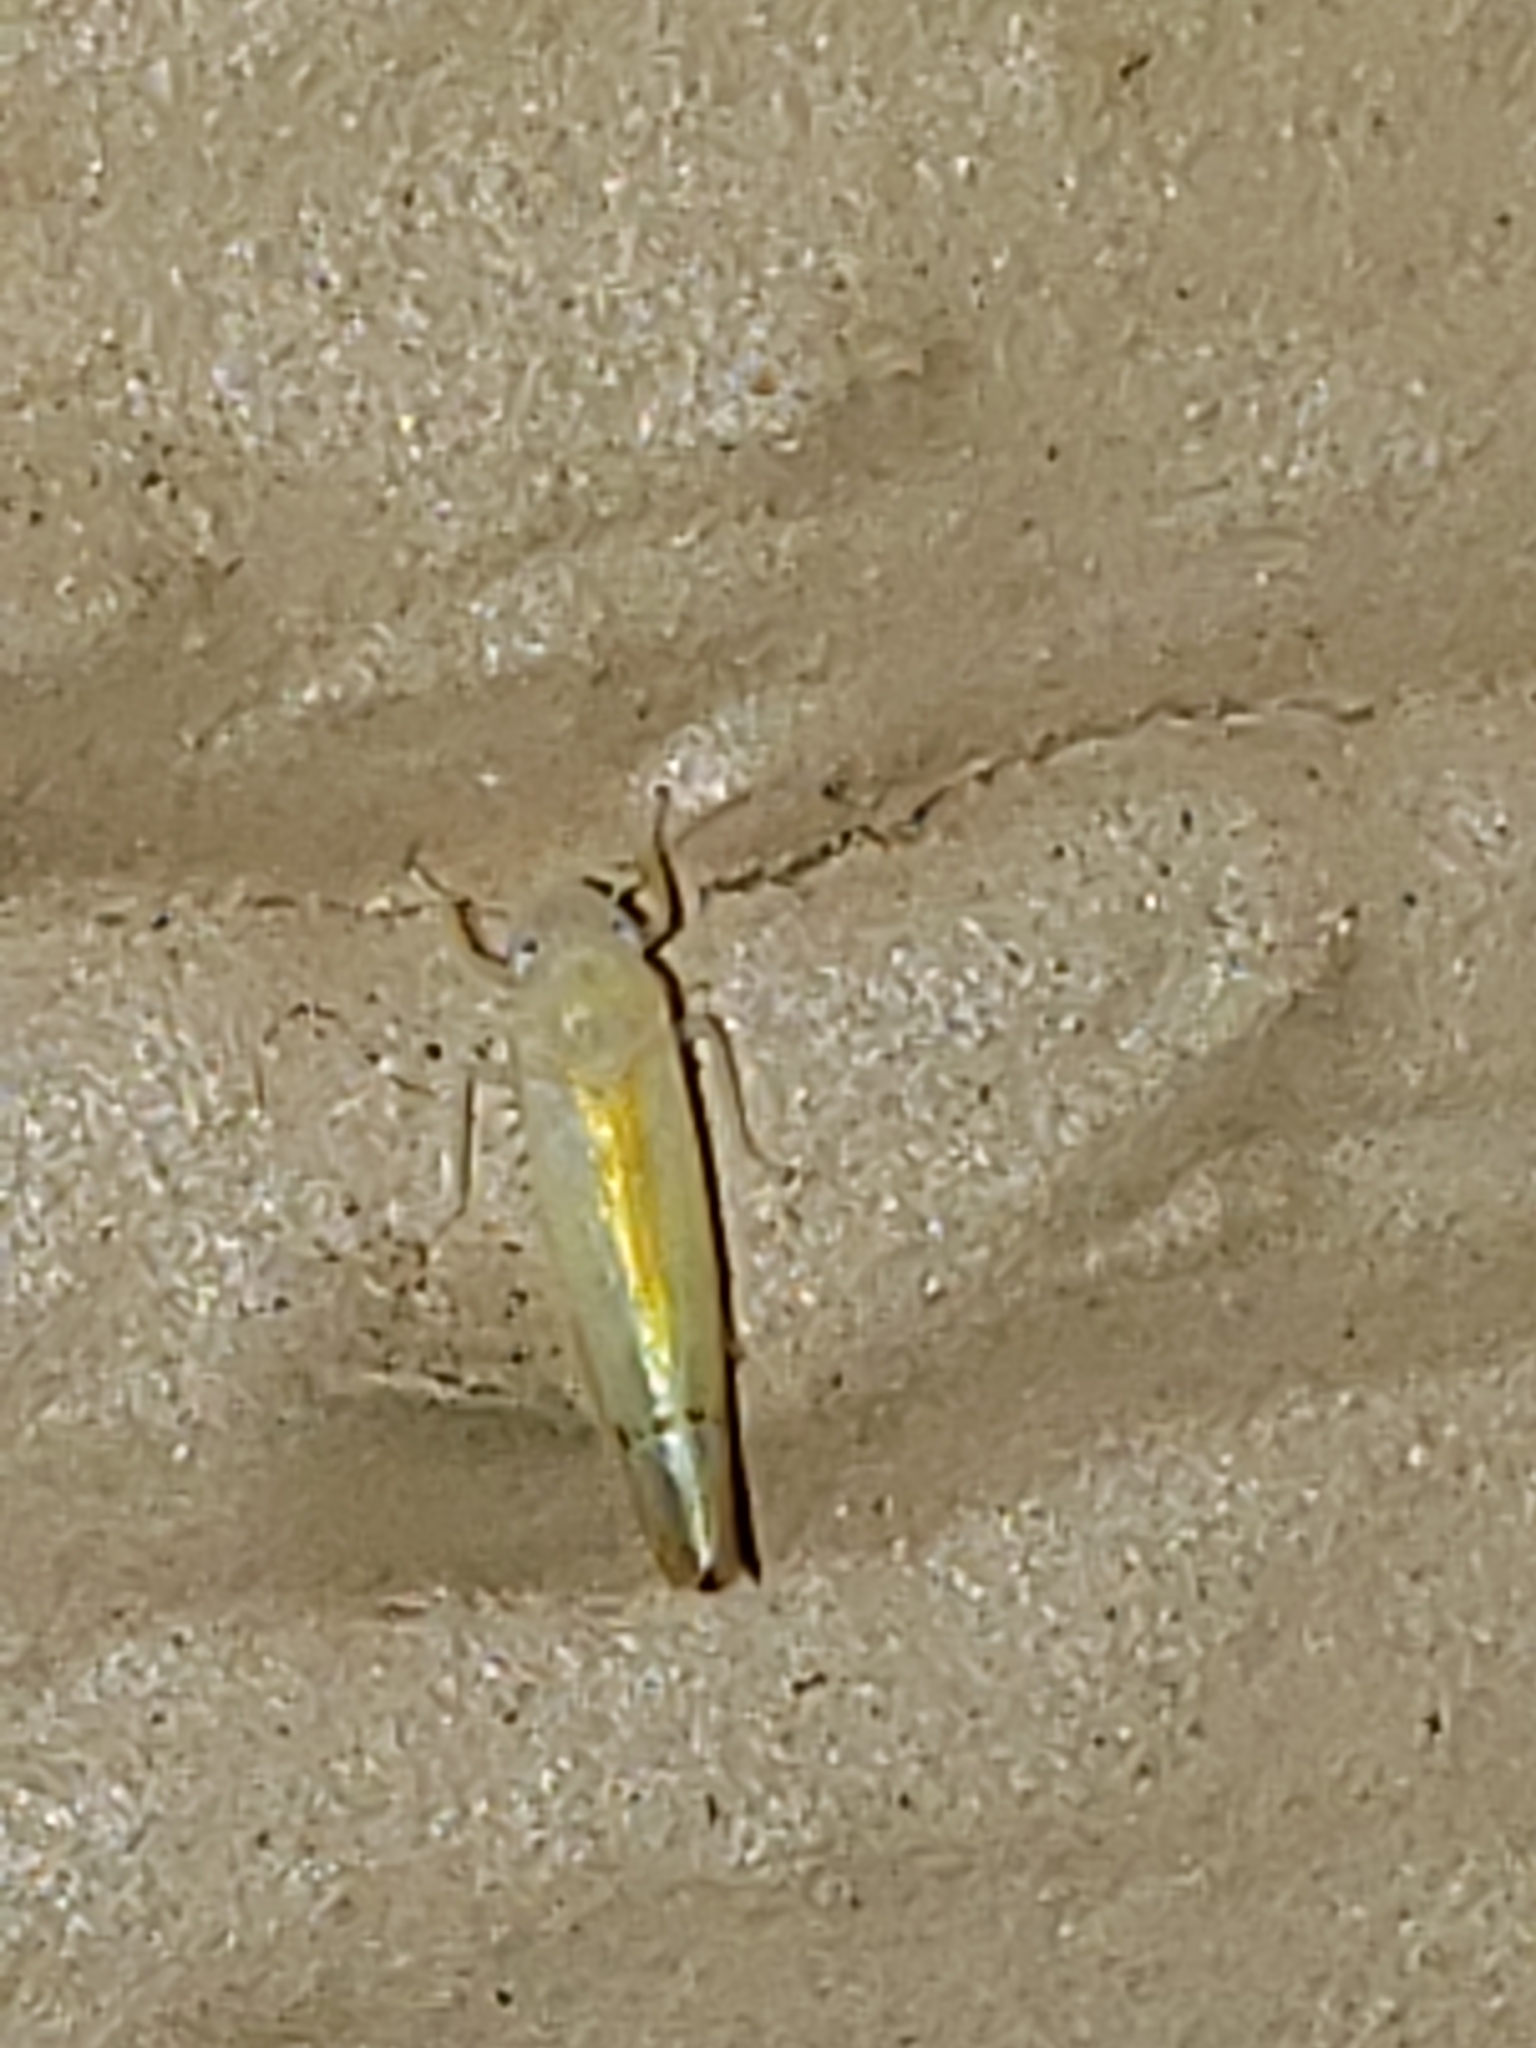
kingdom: Animalia
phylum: Arthropoda
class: Insecta
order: Hemiptera
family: Cicadellidae
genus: Ossiannilssonola
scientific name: Ossiannilssonola australis
